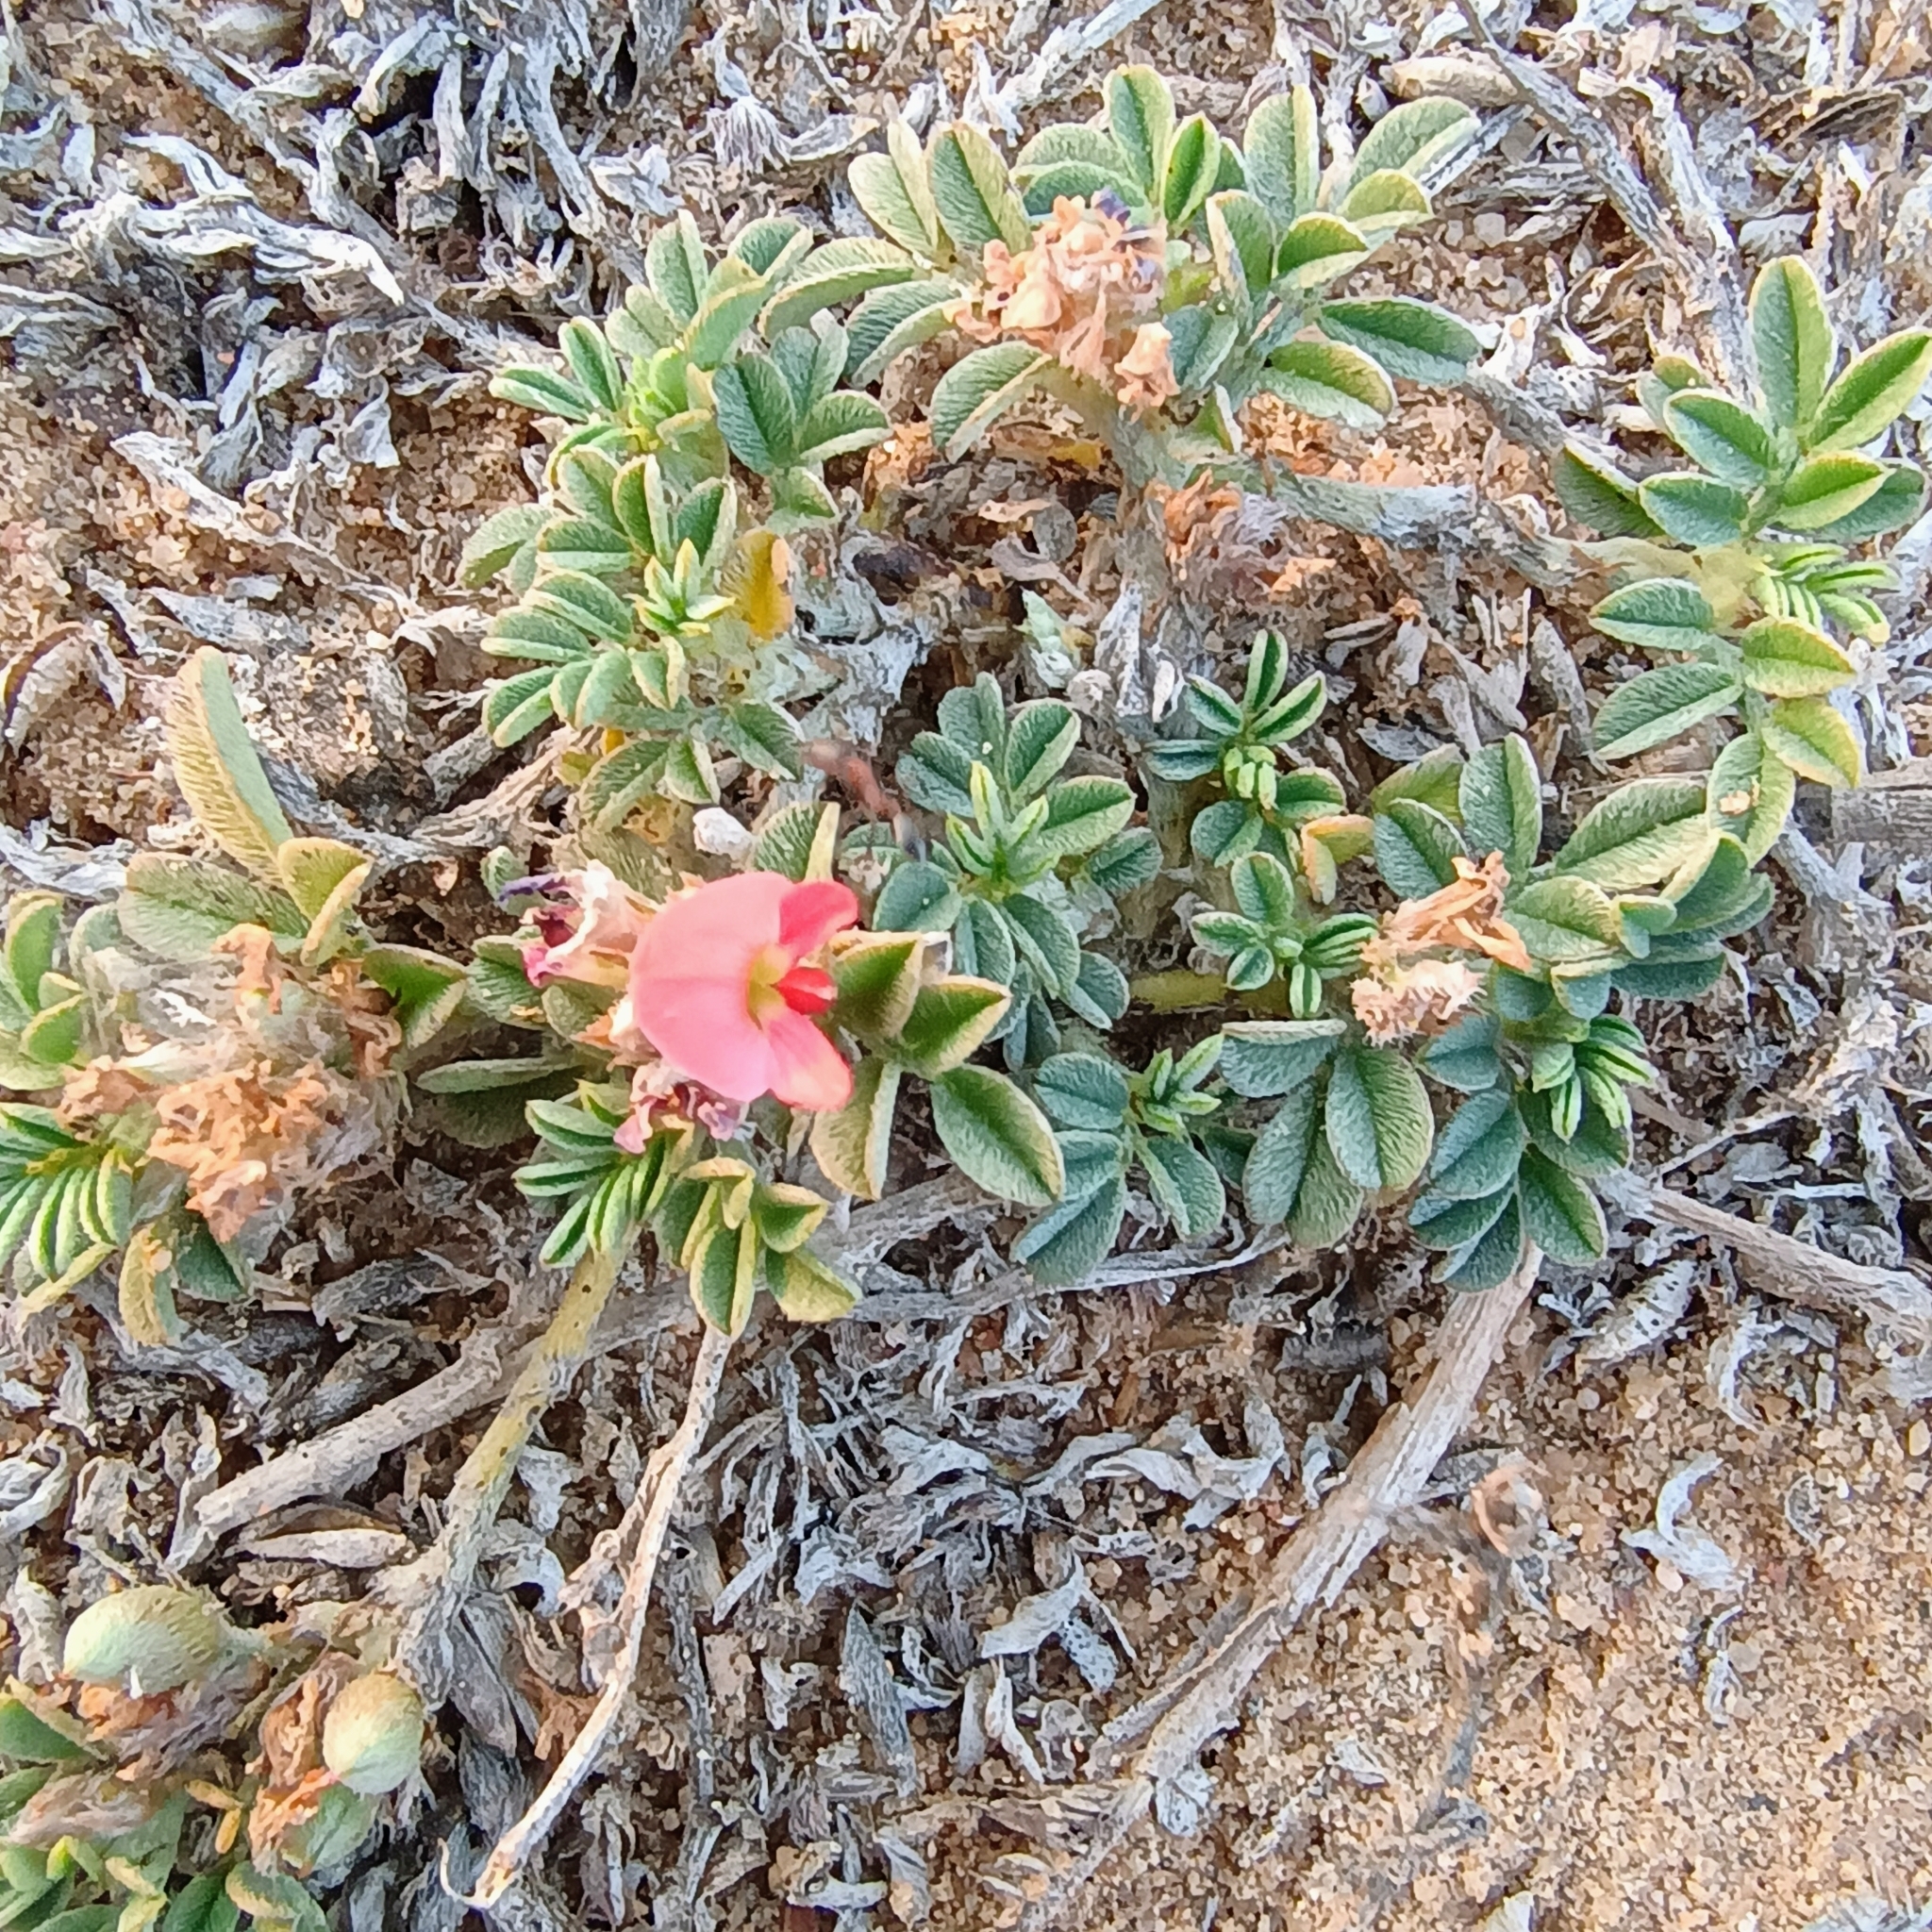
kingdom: Plantae
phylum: Tracheophyta
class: Magnoliopsida
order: Fabales
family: Fabaceae
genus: Indigofera
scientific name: Indigofera linnaei
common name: Nine-leaf indigo
